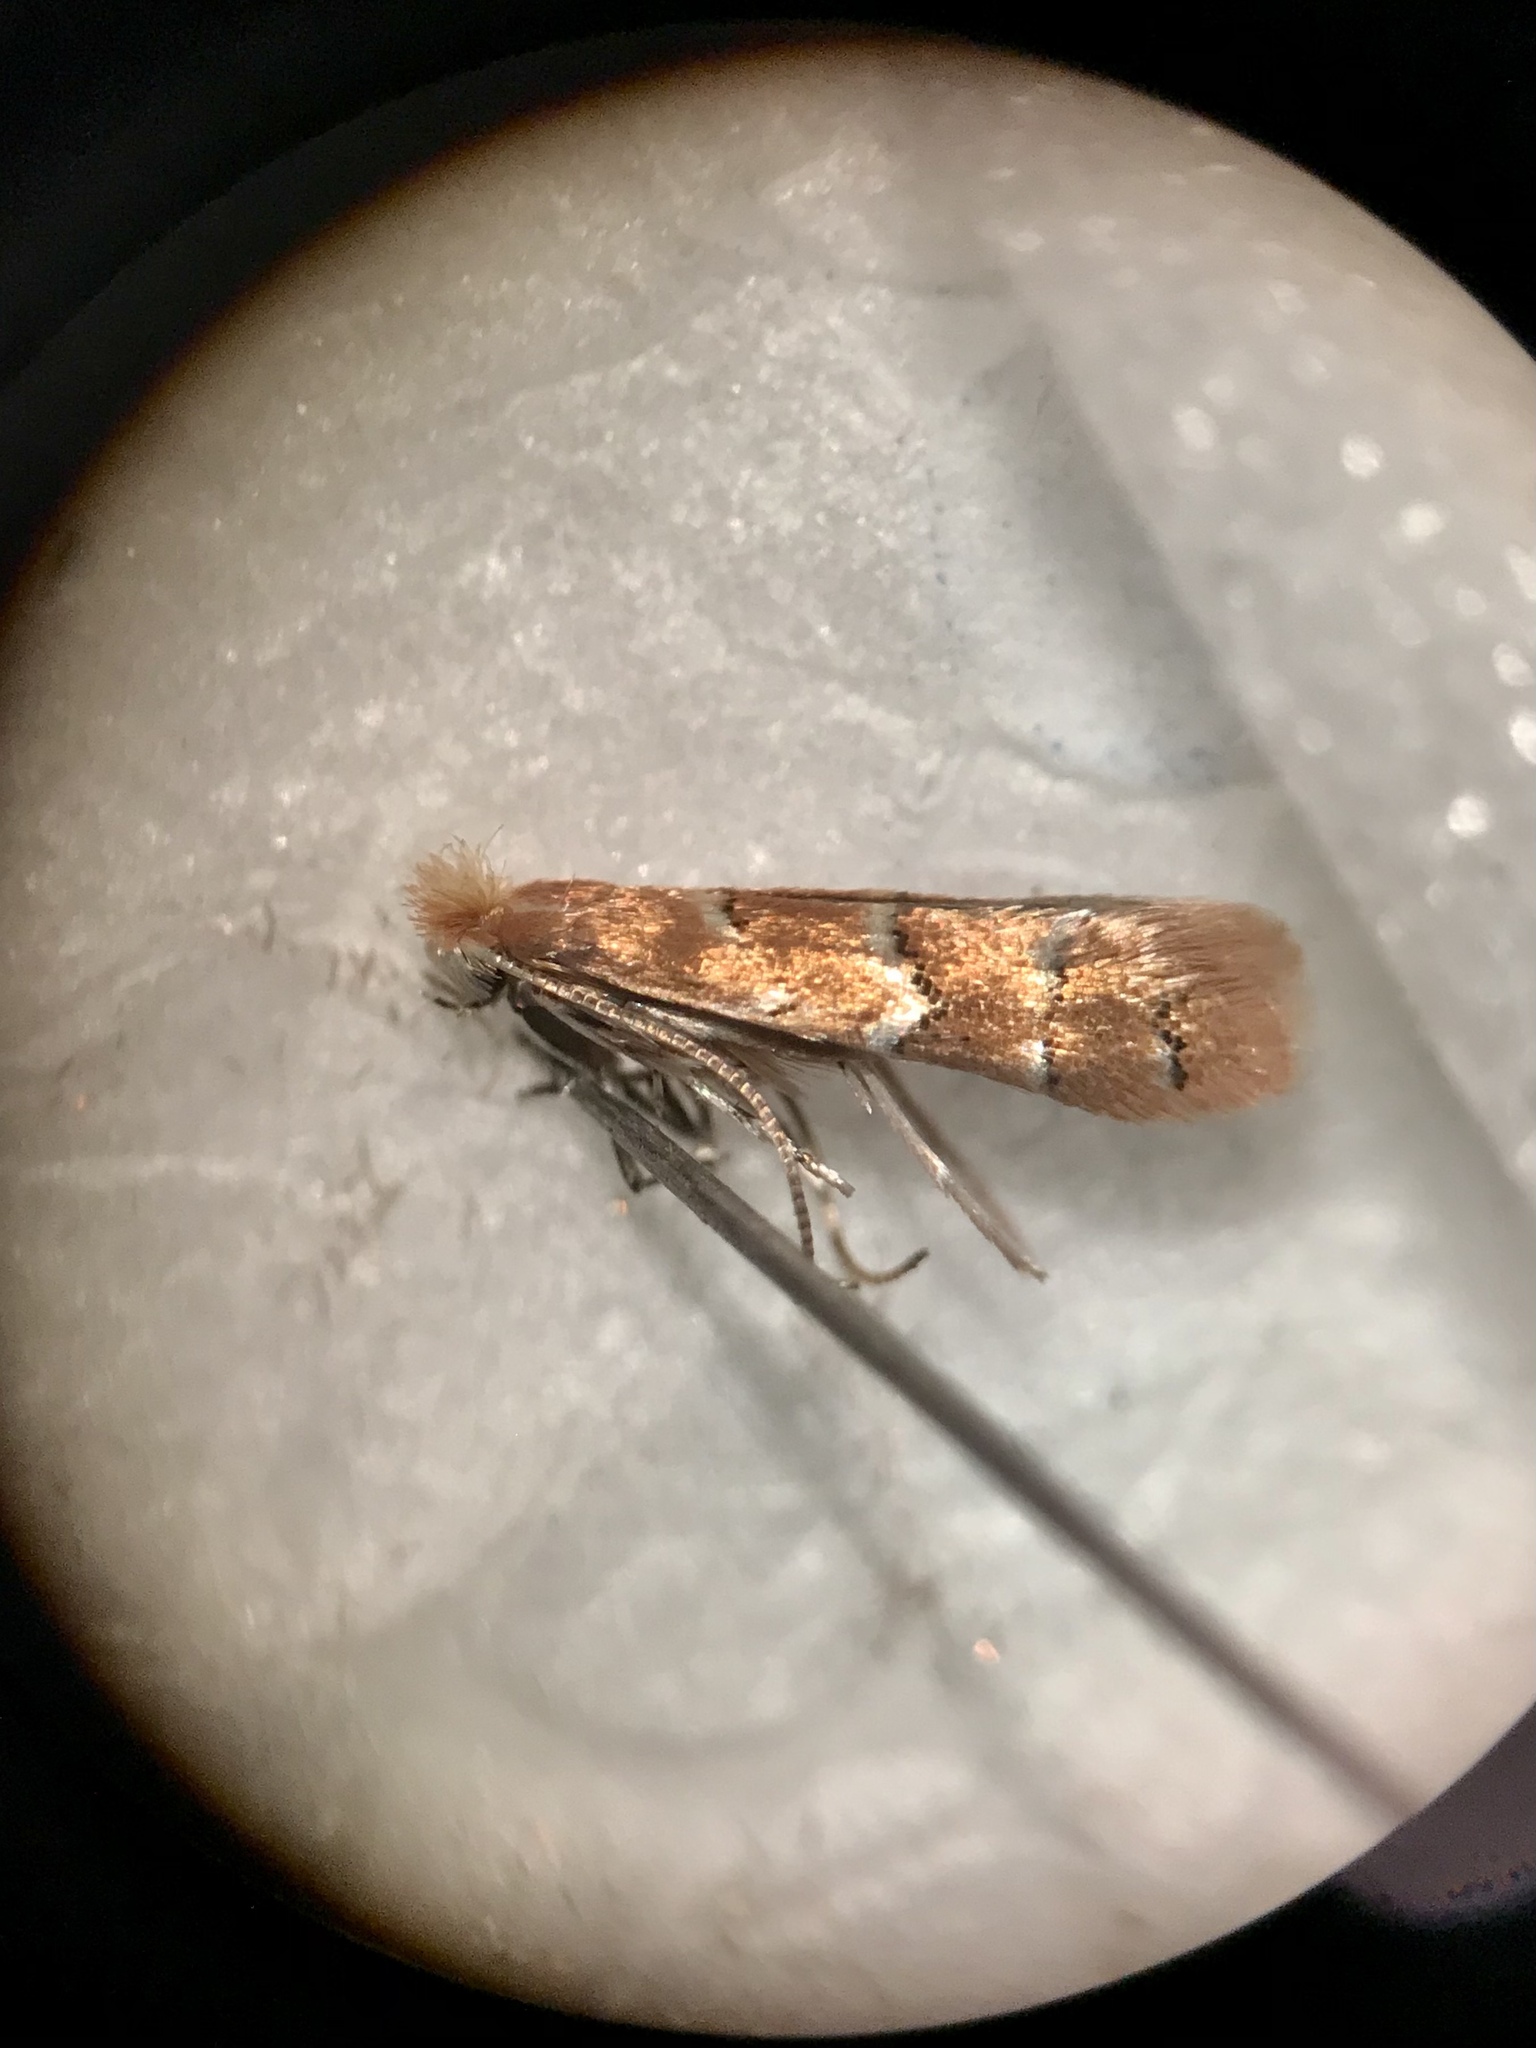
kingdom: Animalia
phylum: Arthropoda
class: Insecta
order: Lepidoptera
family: Gracillariidae
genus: Cameraria
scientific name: Cameraria fletcherella
